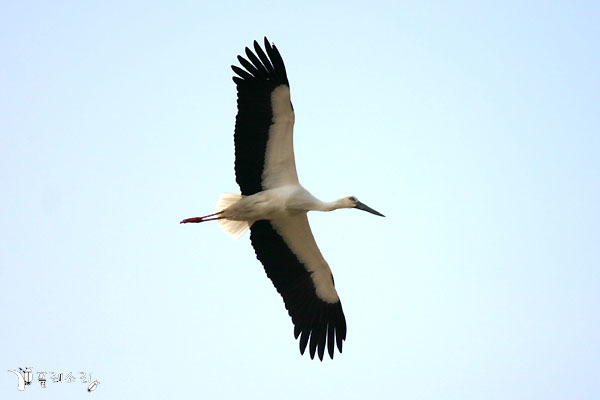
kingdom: Animalia
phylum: Chordata
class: Aves
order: Ciconiiformes
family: Ciconiidae
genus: Ciconia
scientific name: Ciconia boyciana
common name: Oriental stork
